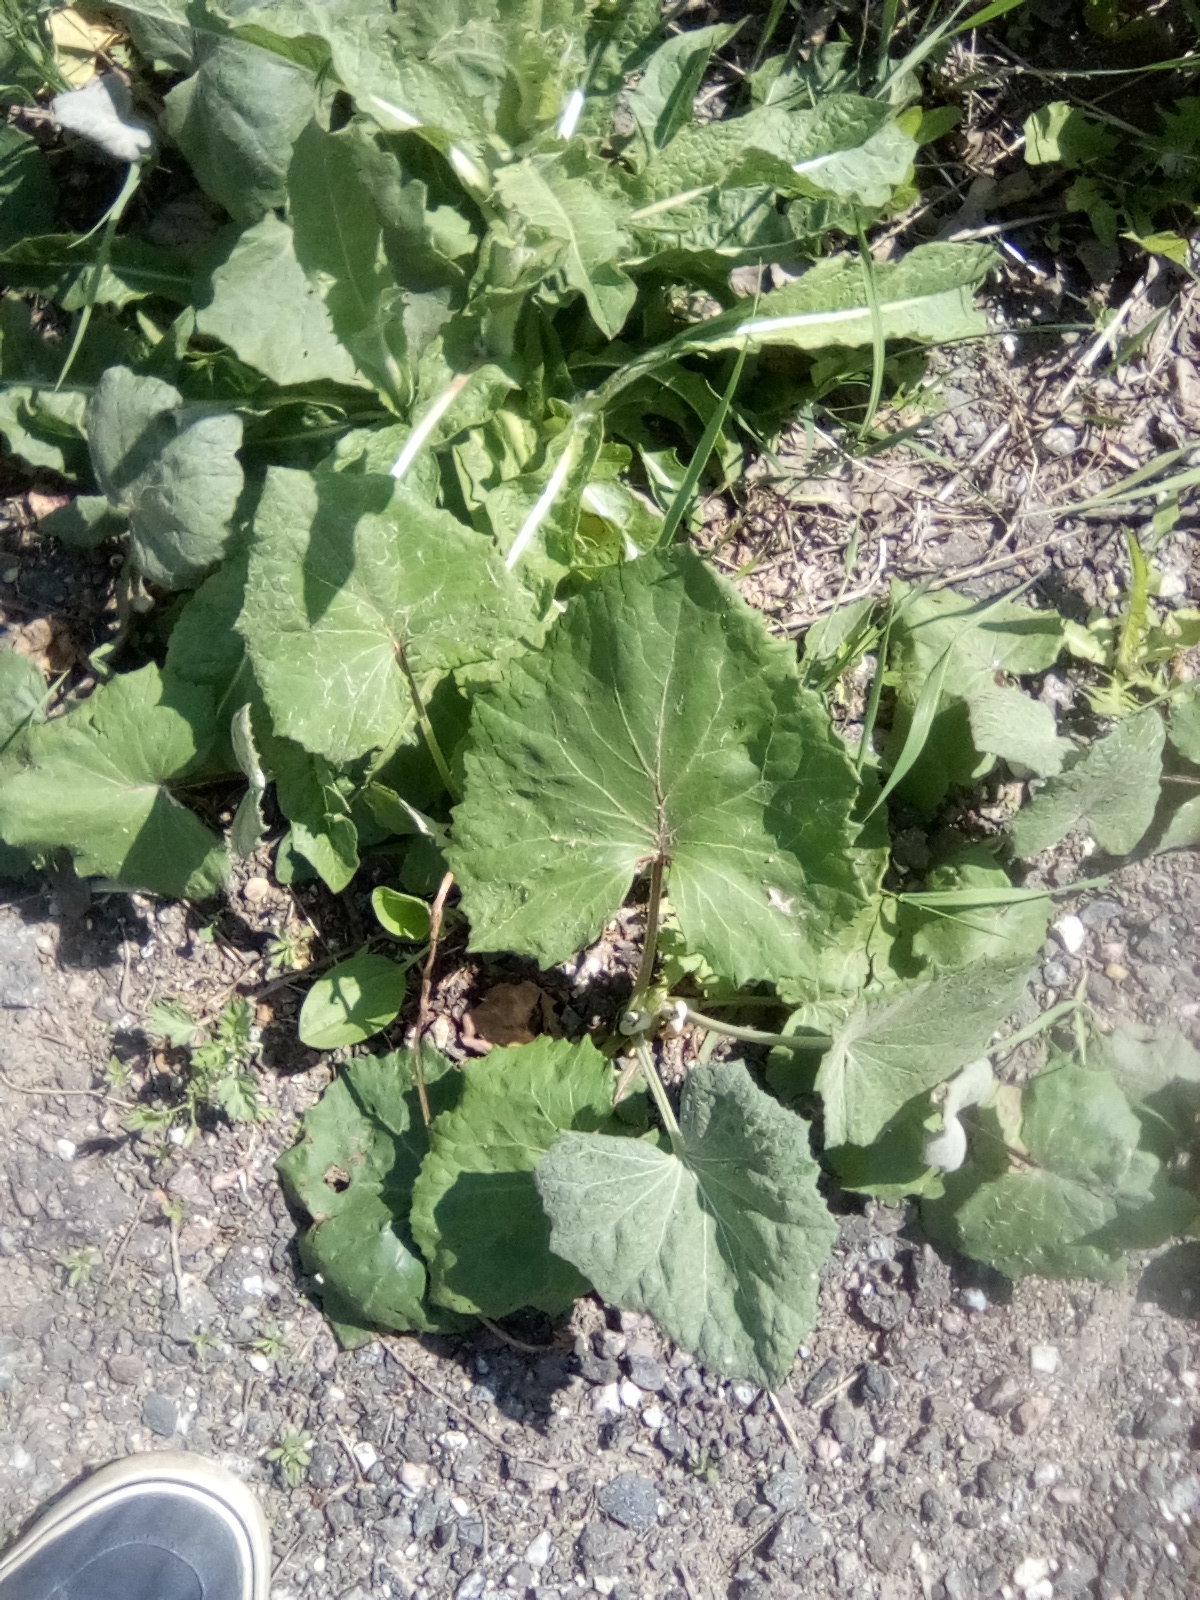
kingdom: Plantae
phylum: Tracheophyta
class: Magnoliopsida
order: Asterales
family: Asteraceae
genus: Tussilago
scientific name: Tussilago farfara
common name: Coltsfoot
